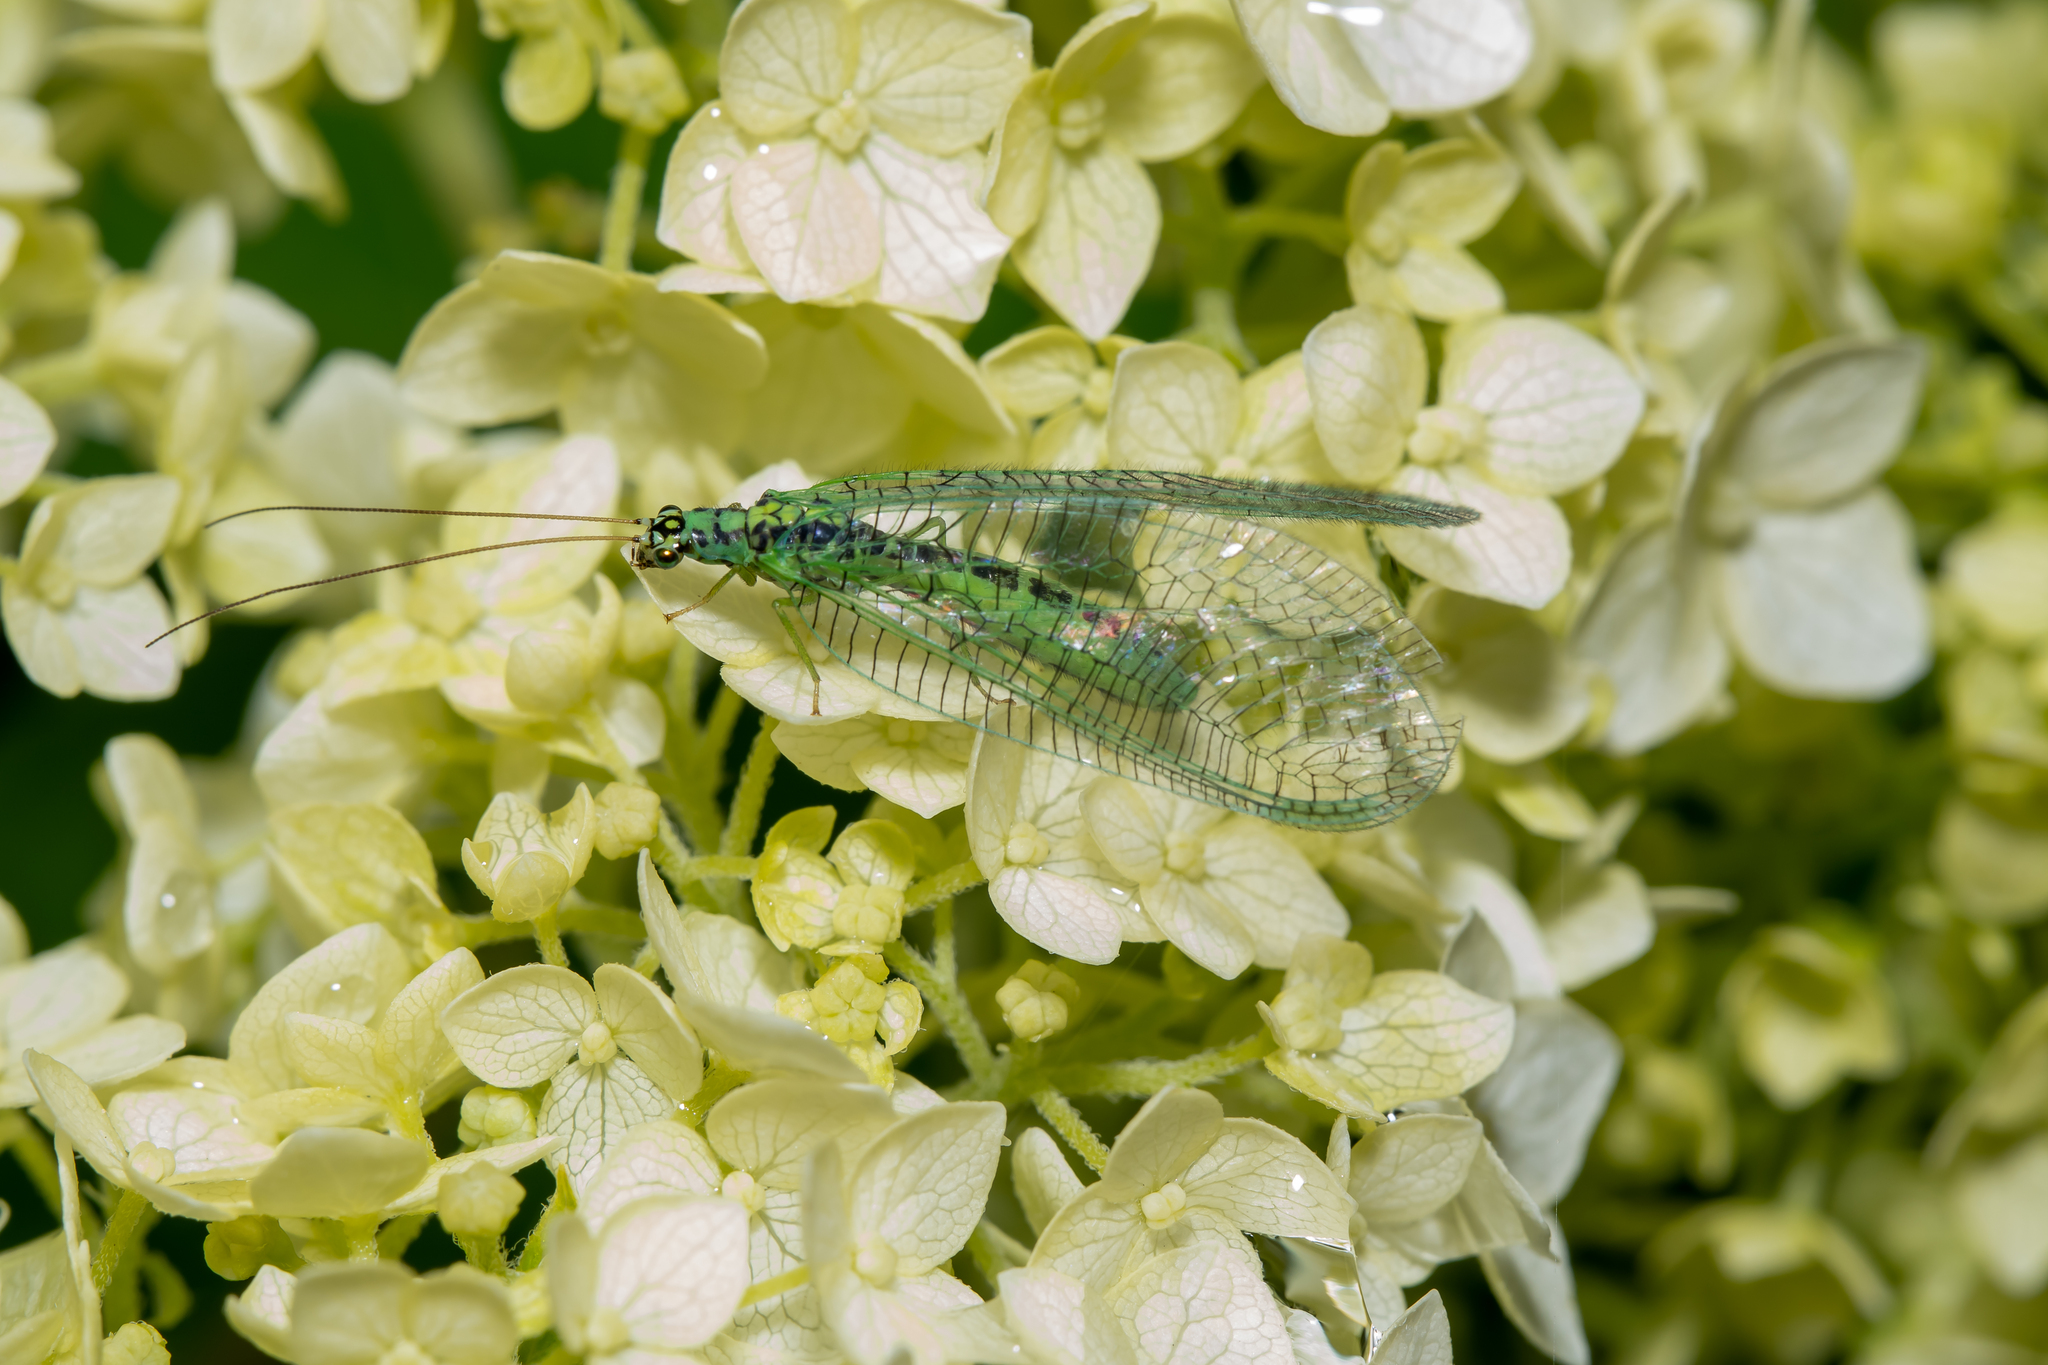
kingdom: Animalia
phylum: Arthropoda
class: Insecta
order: Neuroptera
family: Chrysopidae
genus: Chrysopa
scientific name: Chrysopa perla
